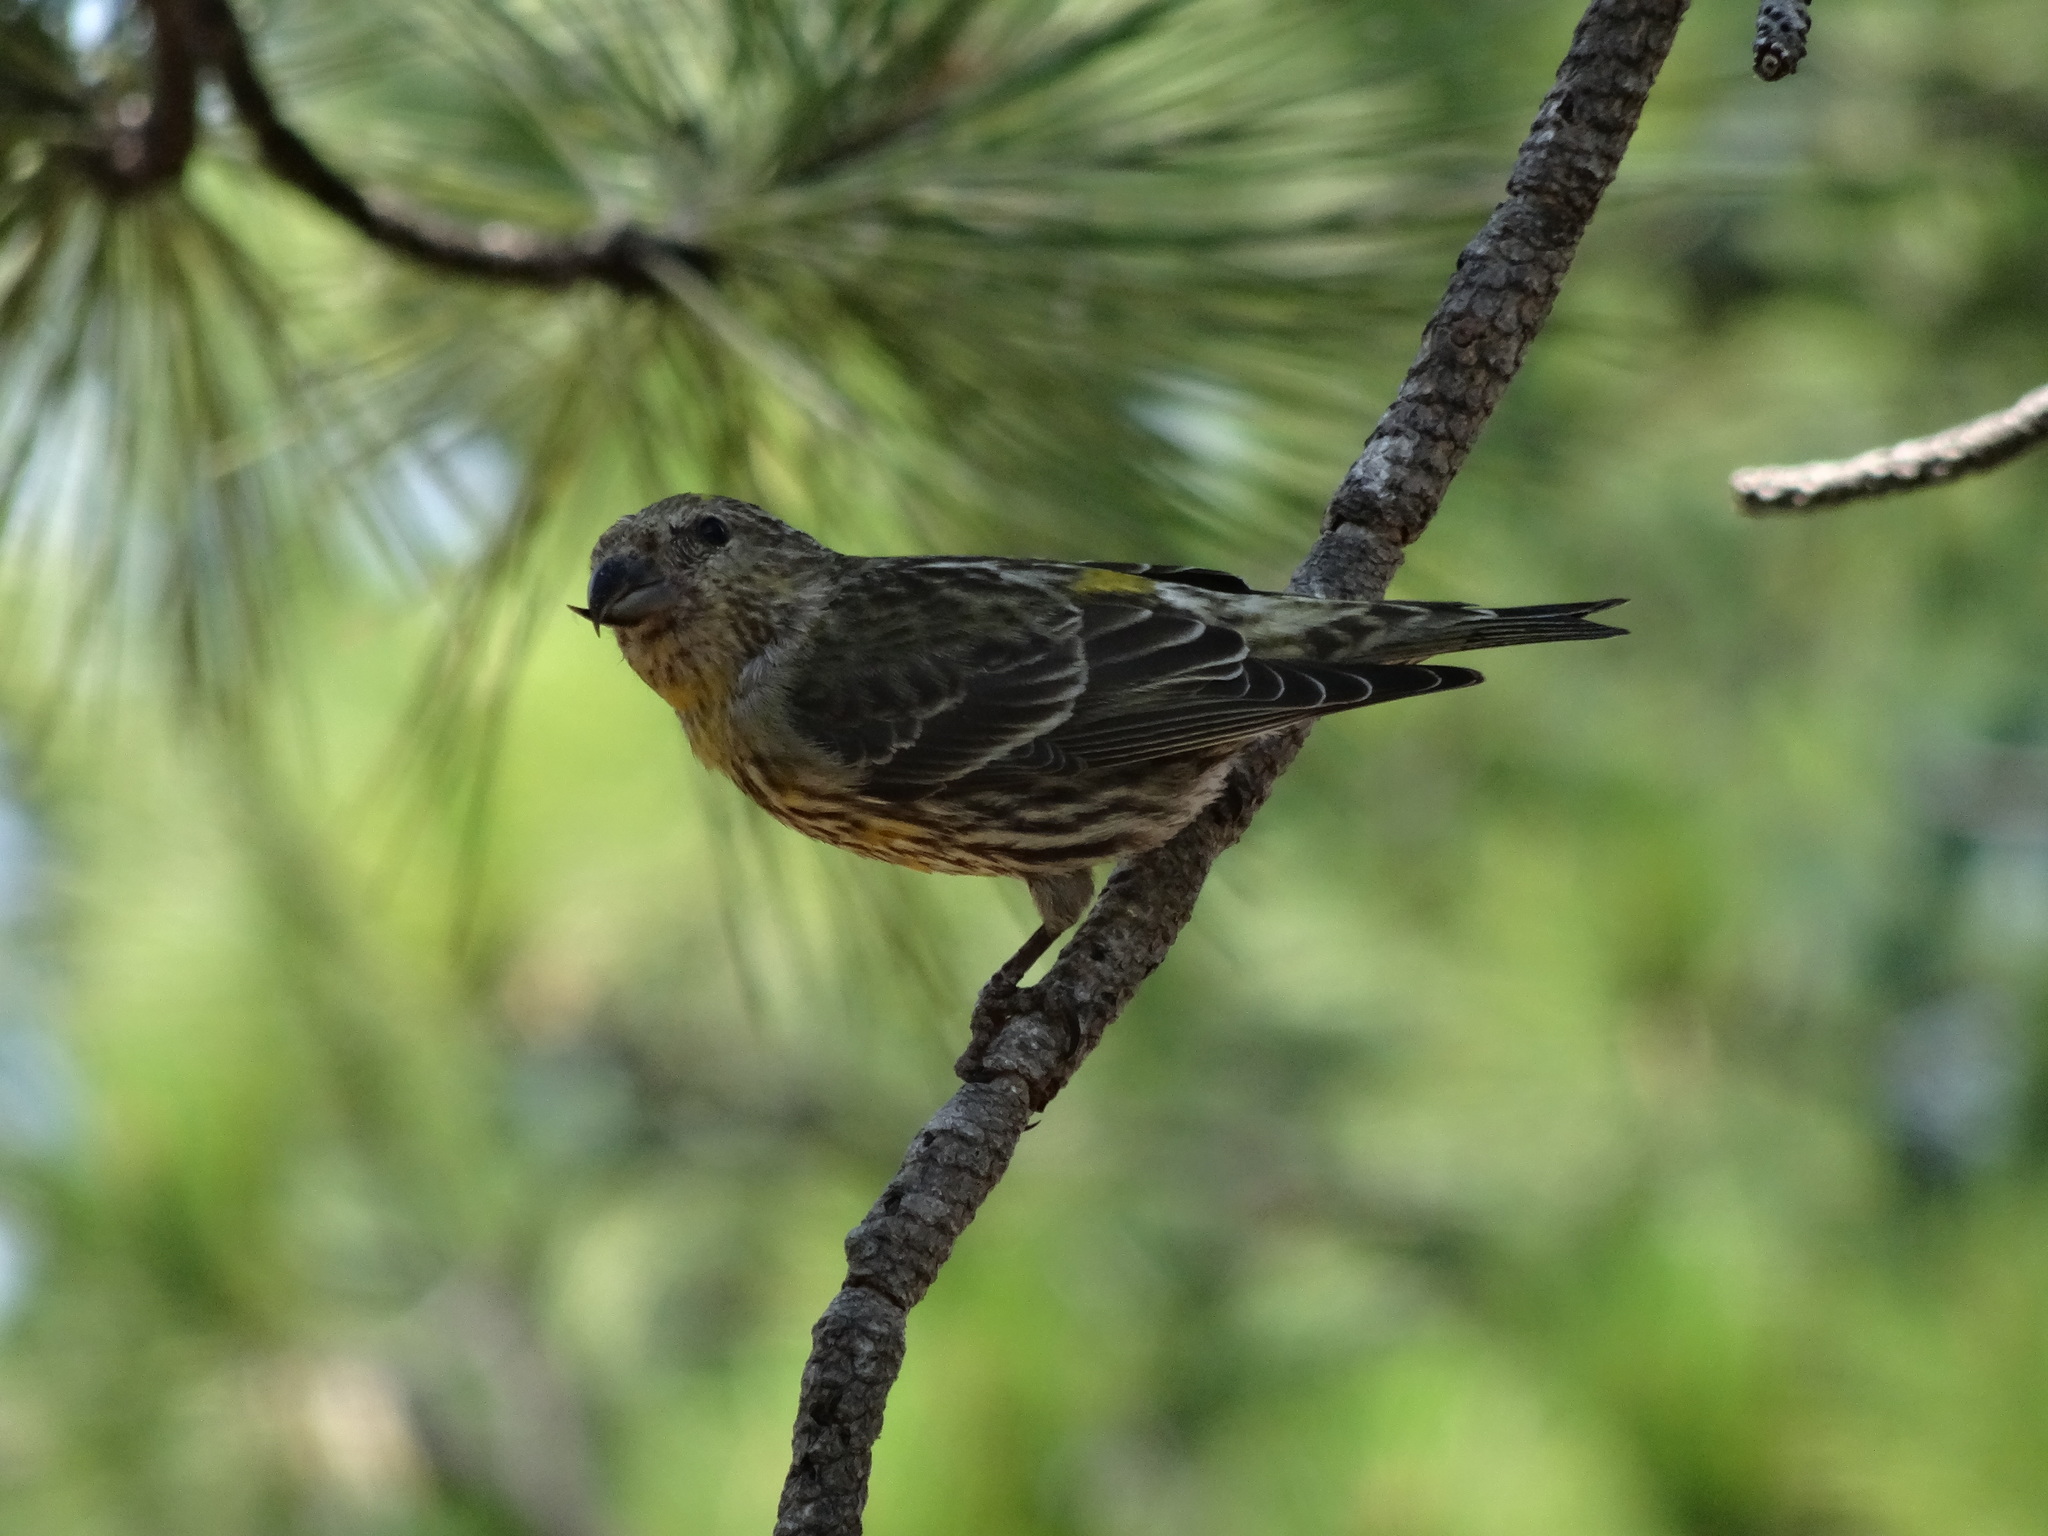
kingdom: Animalia
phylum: Chordata
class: Aves
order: Passeriformes
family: Fringillidae
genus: Loxia
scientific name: Loxia curvirostra
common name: Red crossbill
